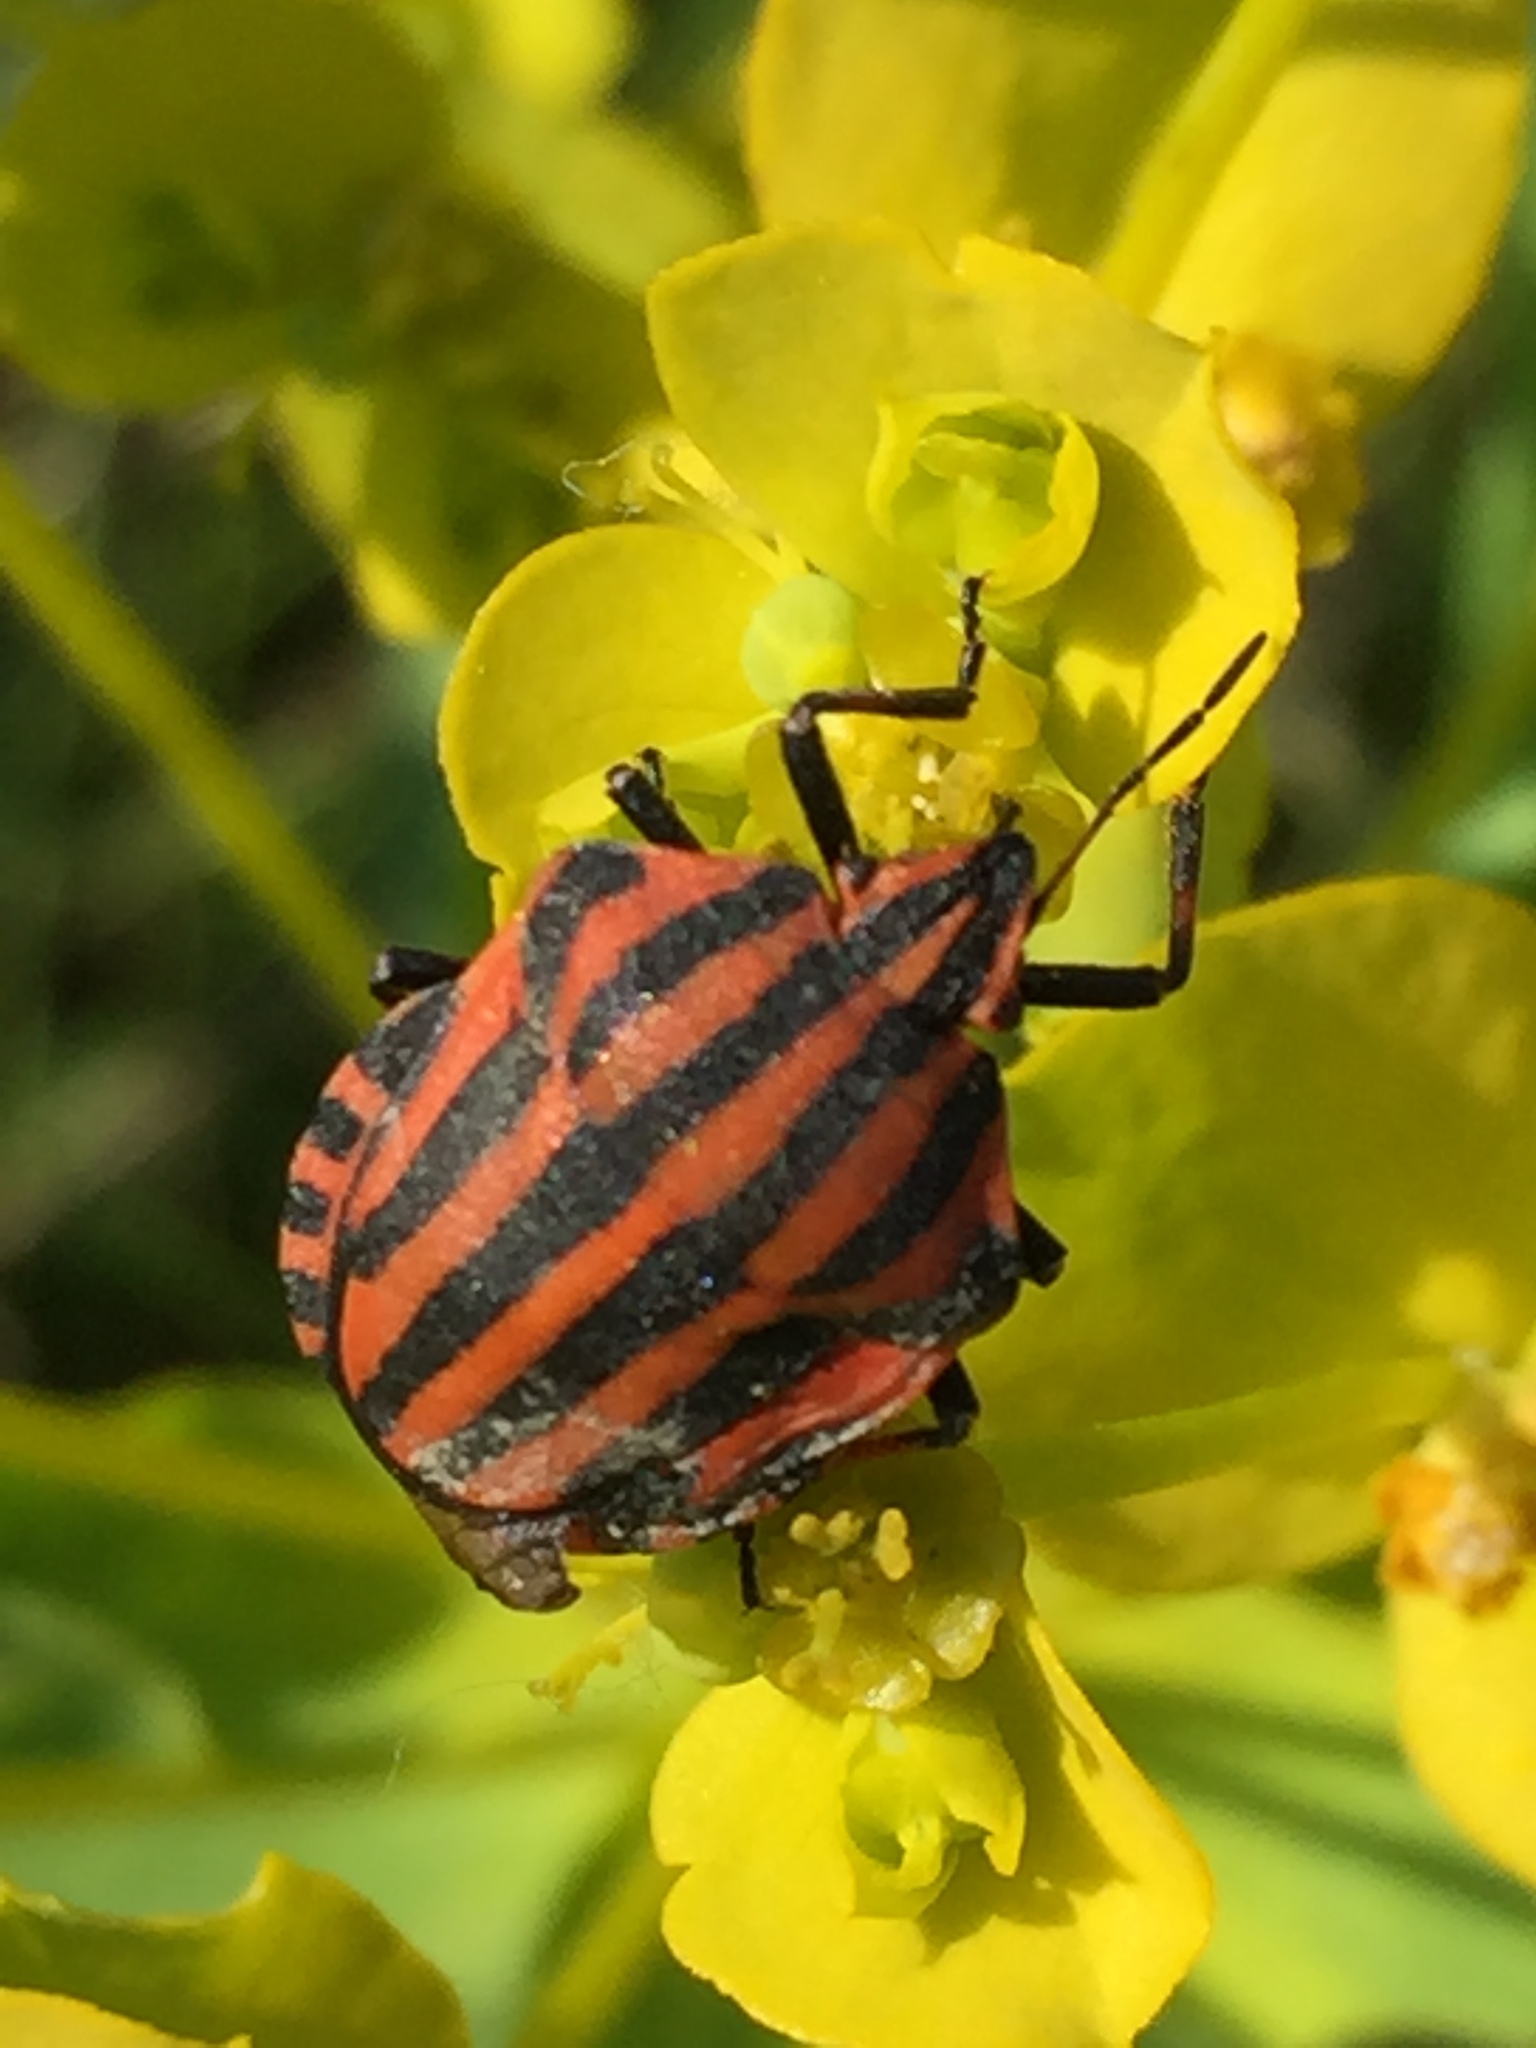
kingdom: Animalia
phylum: Arthropoda
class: Insecta
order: Hemiptera
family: Pentatomidae
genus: Graphosoma
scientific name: Graphosoma italicum
